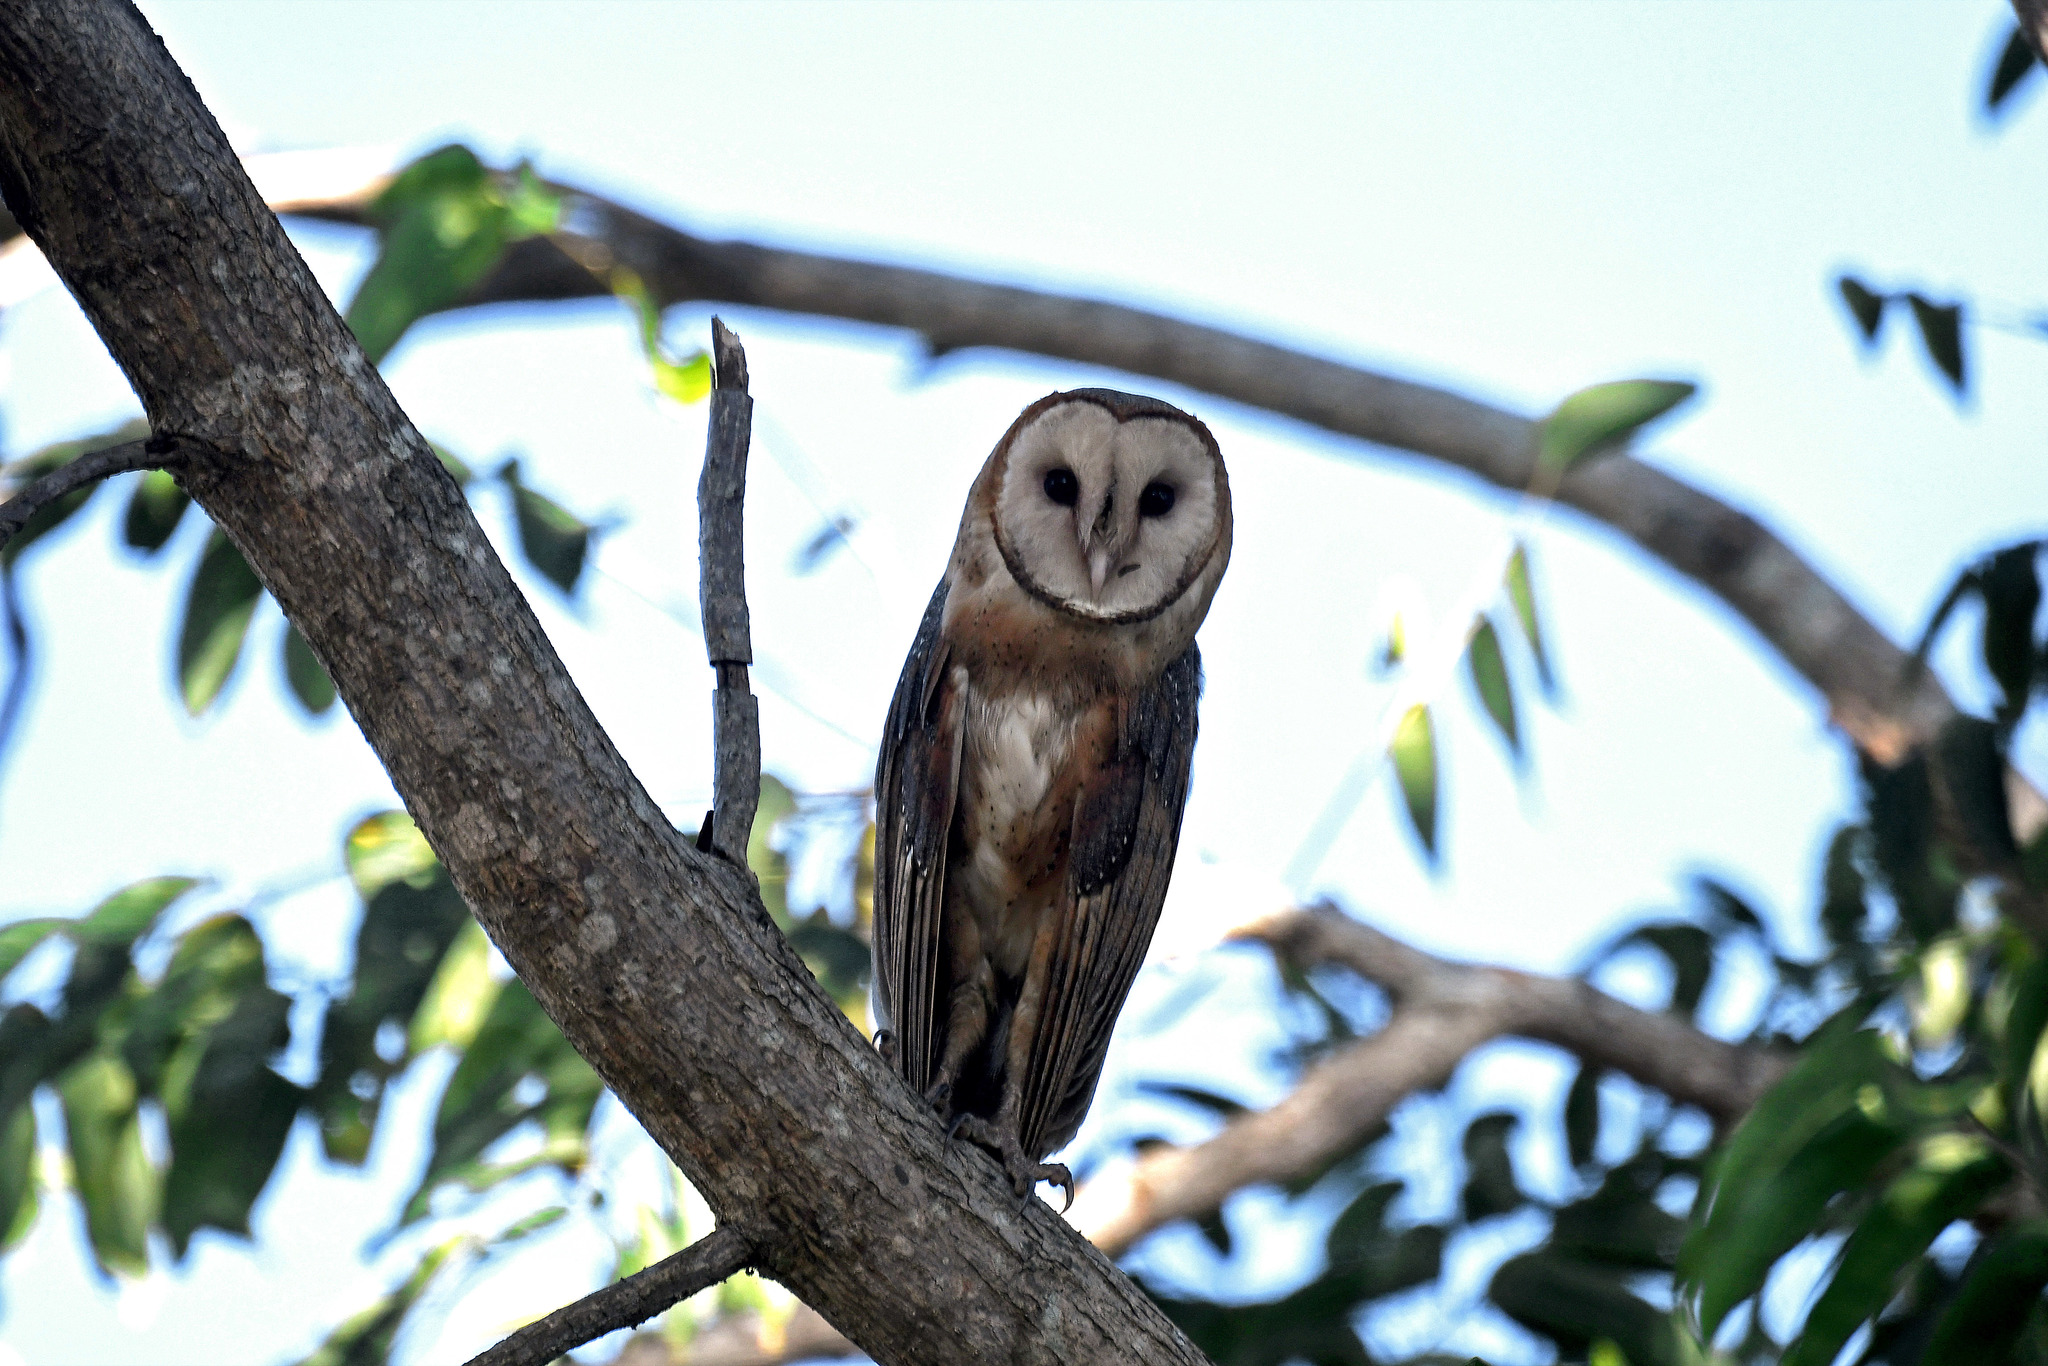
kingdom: Animalia
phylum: Chordata
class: Aves
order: Strigiformes
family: Tytonidae
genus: Tyto
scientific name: Tyto alba
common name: Barn owl
